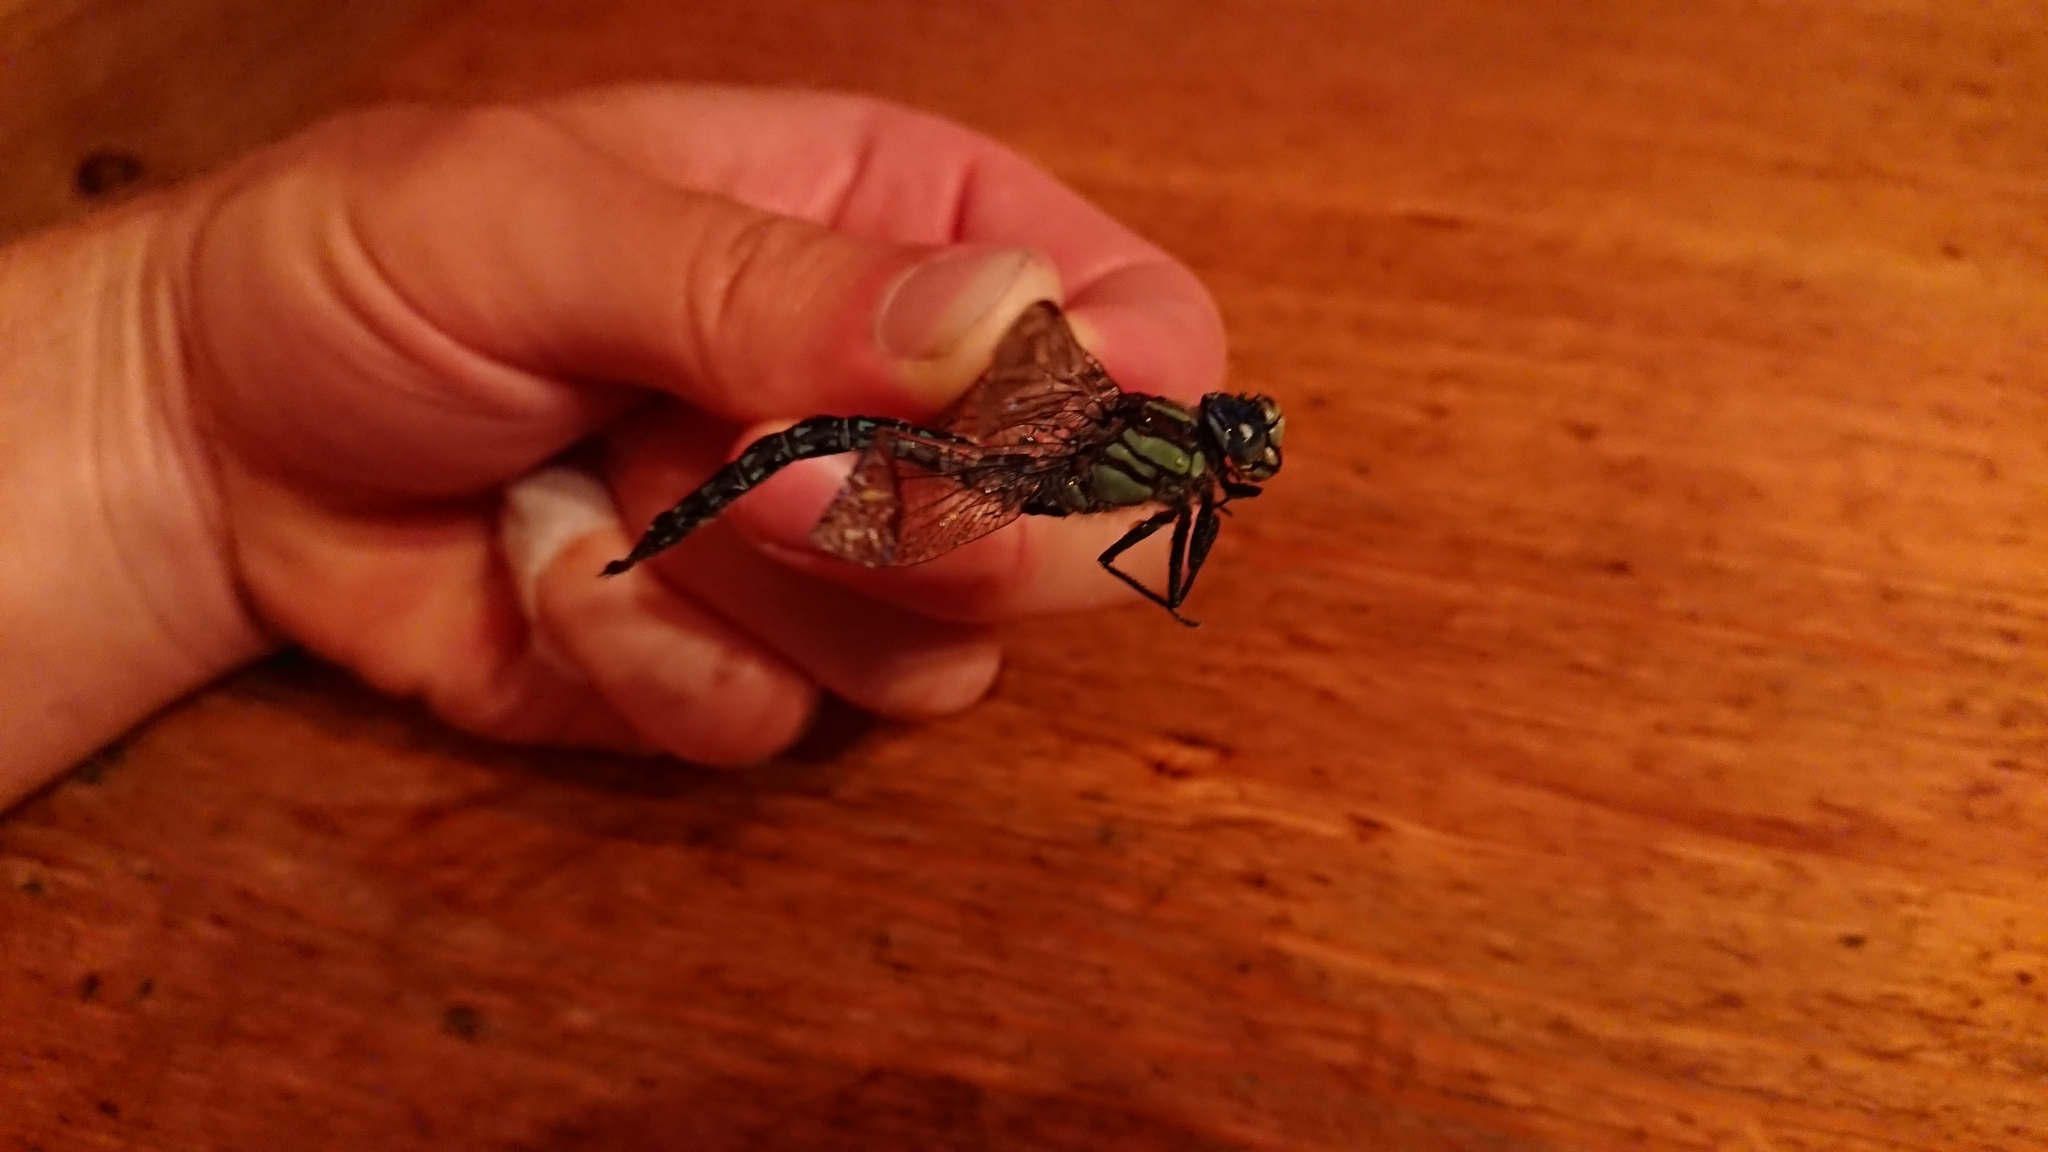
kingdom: Animalia
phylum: Arthropoda
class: Insecta
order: Odonata
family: Aeshnidae
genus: Brachytron
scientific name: Brachytron pratense
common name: Hairy hawker
